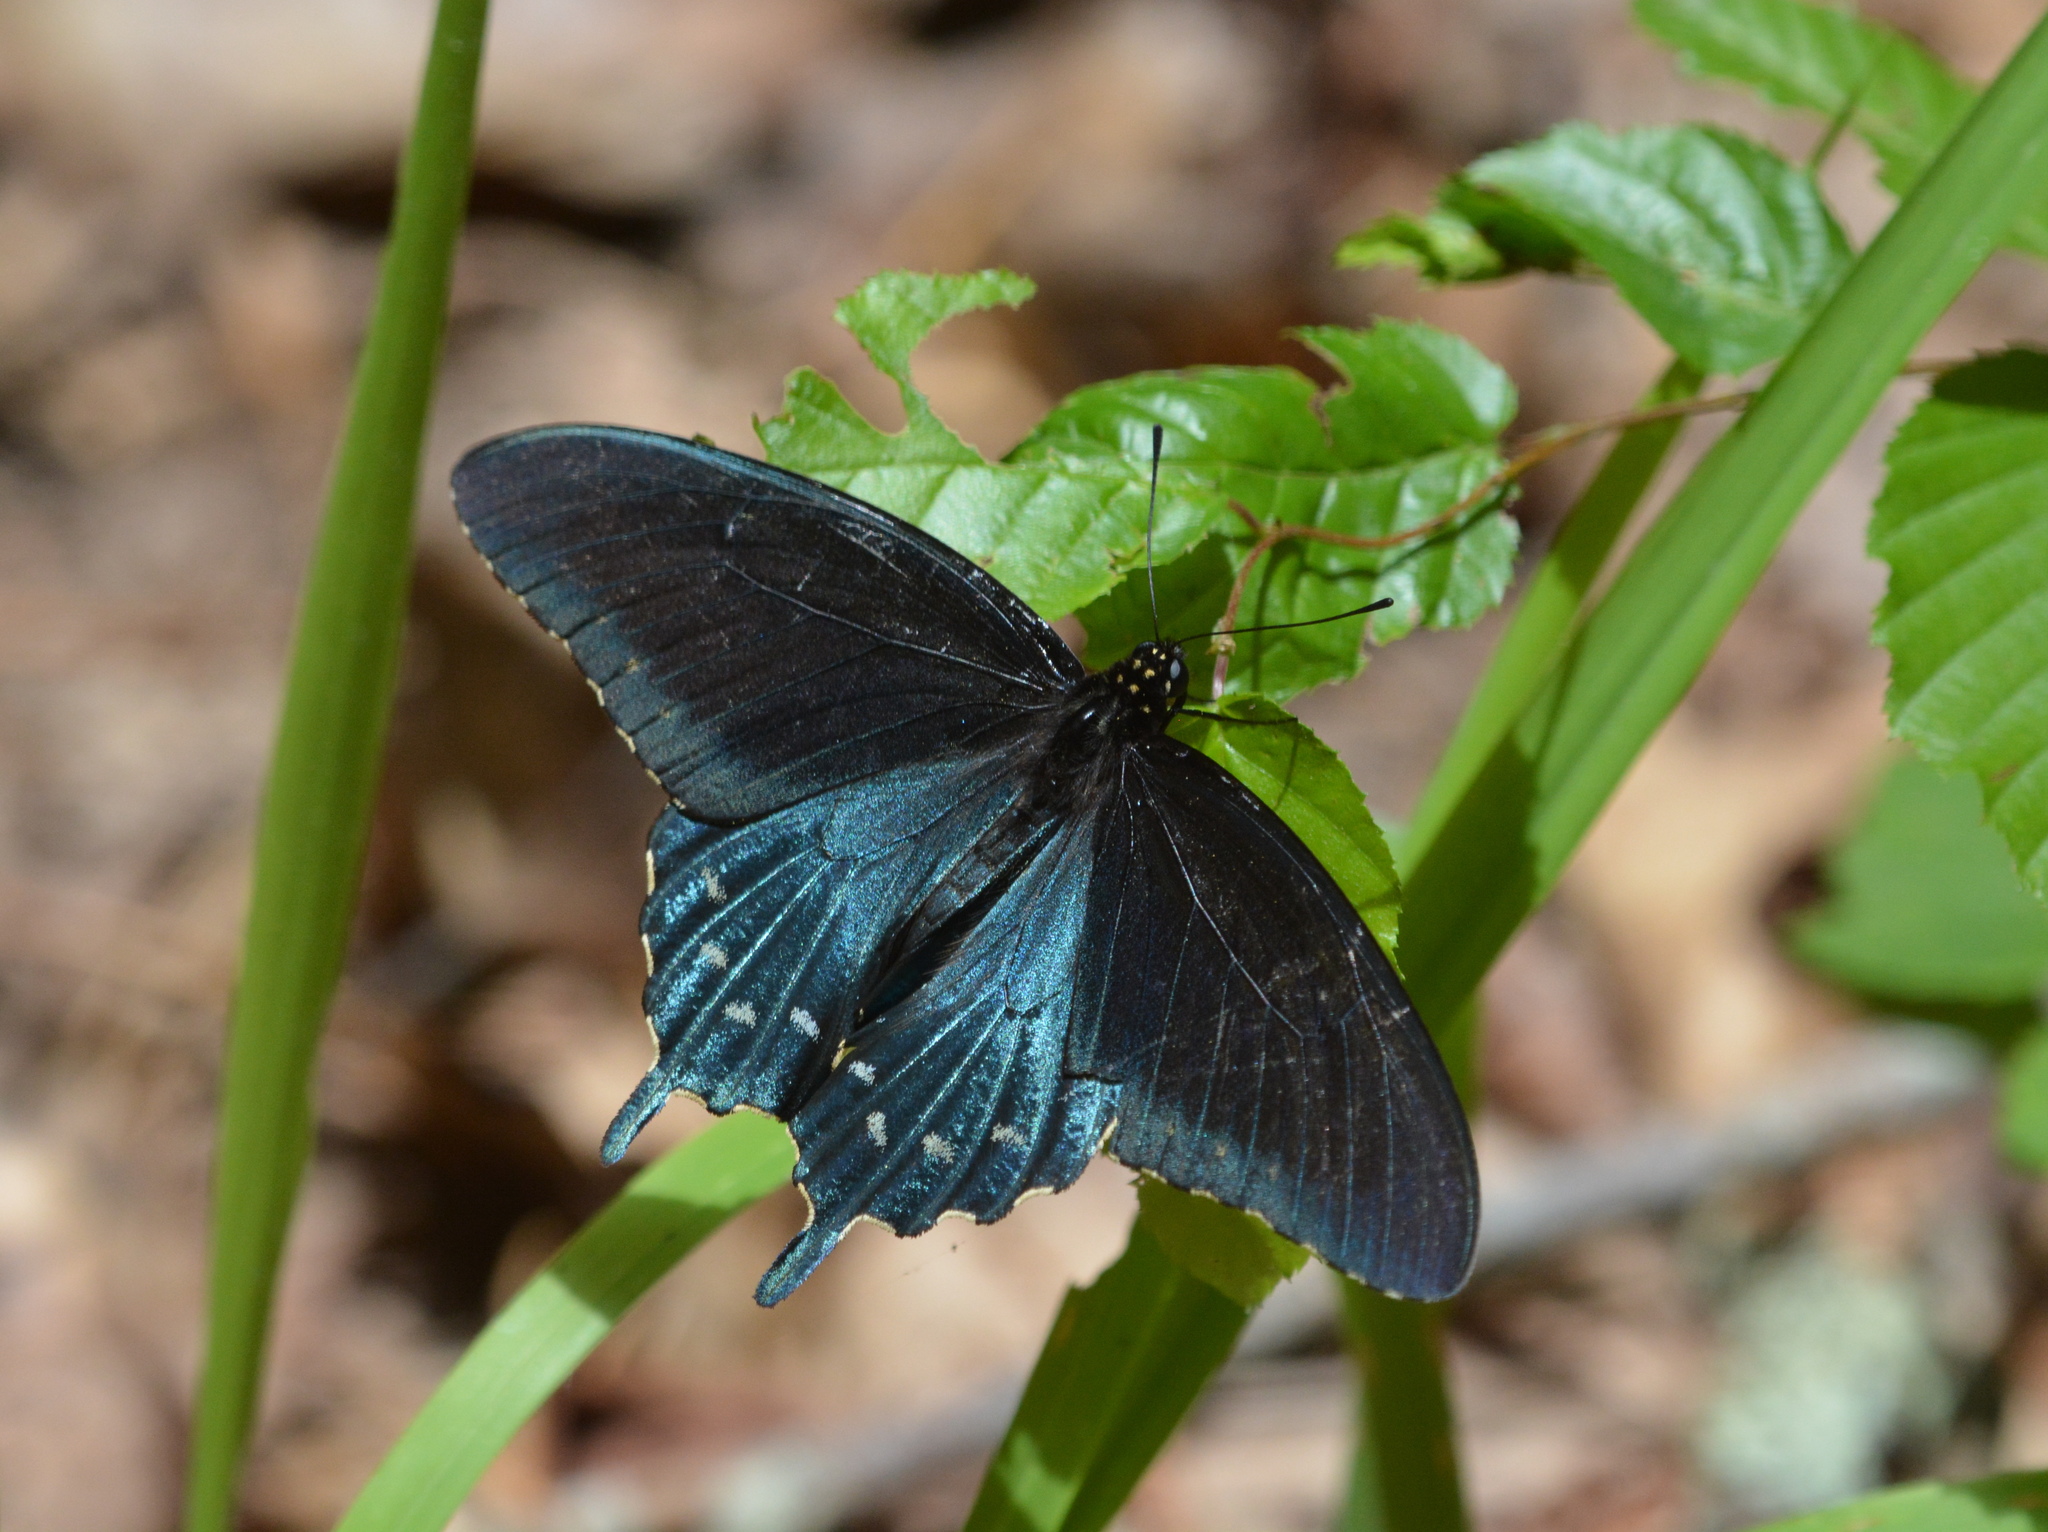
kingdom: Animalia
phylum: Arthropoda
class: Insecta
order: Lepidoptera
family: Papilionidae
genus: Battus
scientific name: Battus philenor
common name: Pipevine swallowtail
